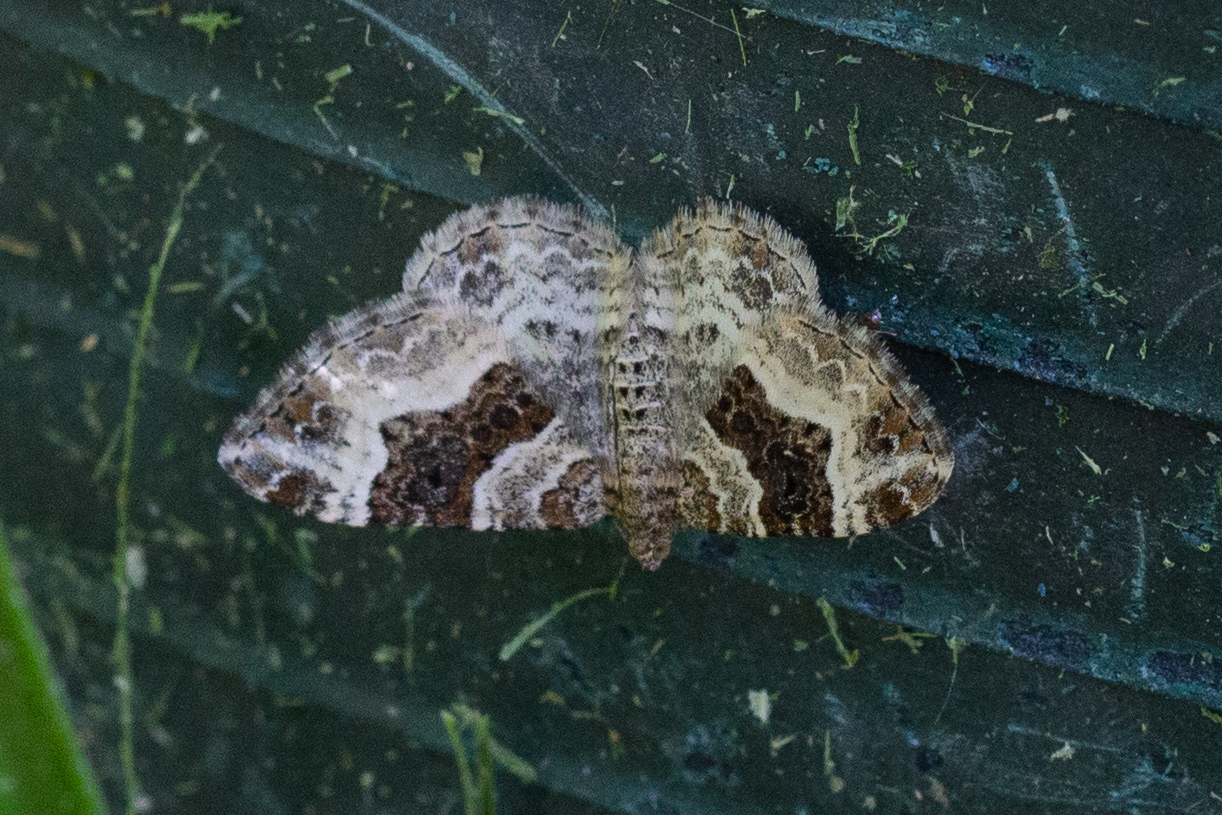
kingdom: Animalia
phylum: Arthropoda
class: Insecta
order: Lepidoptera
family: Geometridae
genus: Epirrhoe
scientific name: Epirrhoe alternata
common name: Common carpet
